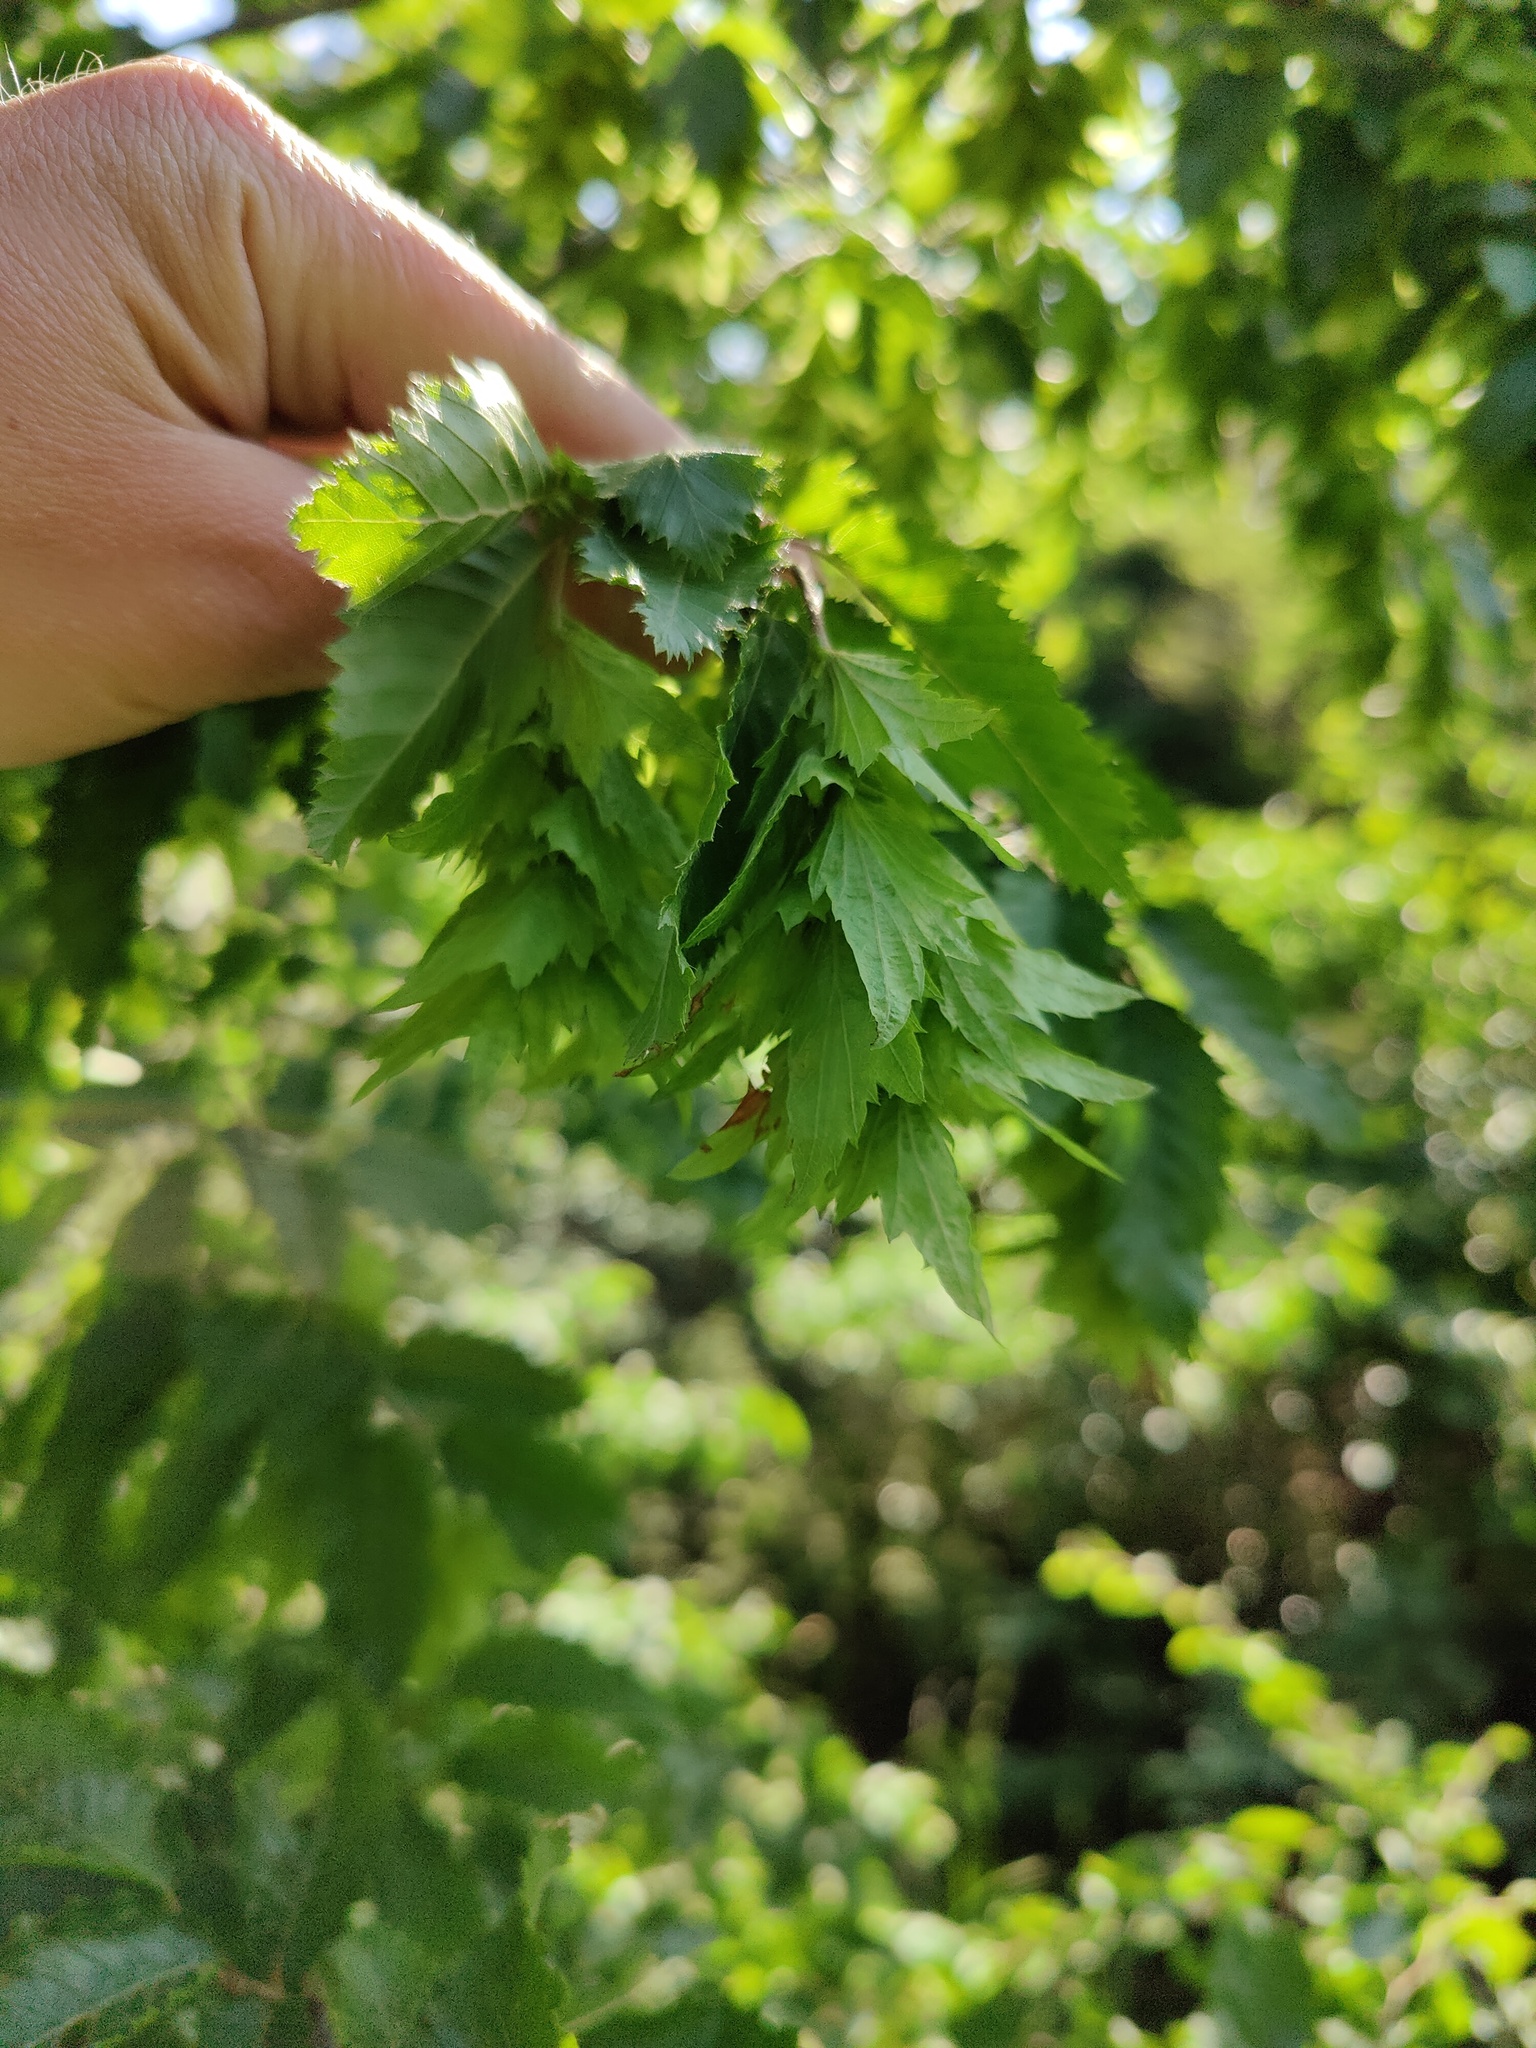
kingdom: Plantae
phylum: Tracheophyta
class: Magnoliopsida
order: Fagales
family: Betulaceae
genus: Carpinus
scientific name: Carpinus orientalis
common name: Eastern hornbeam
